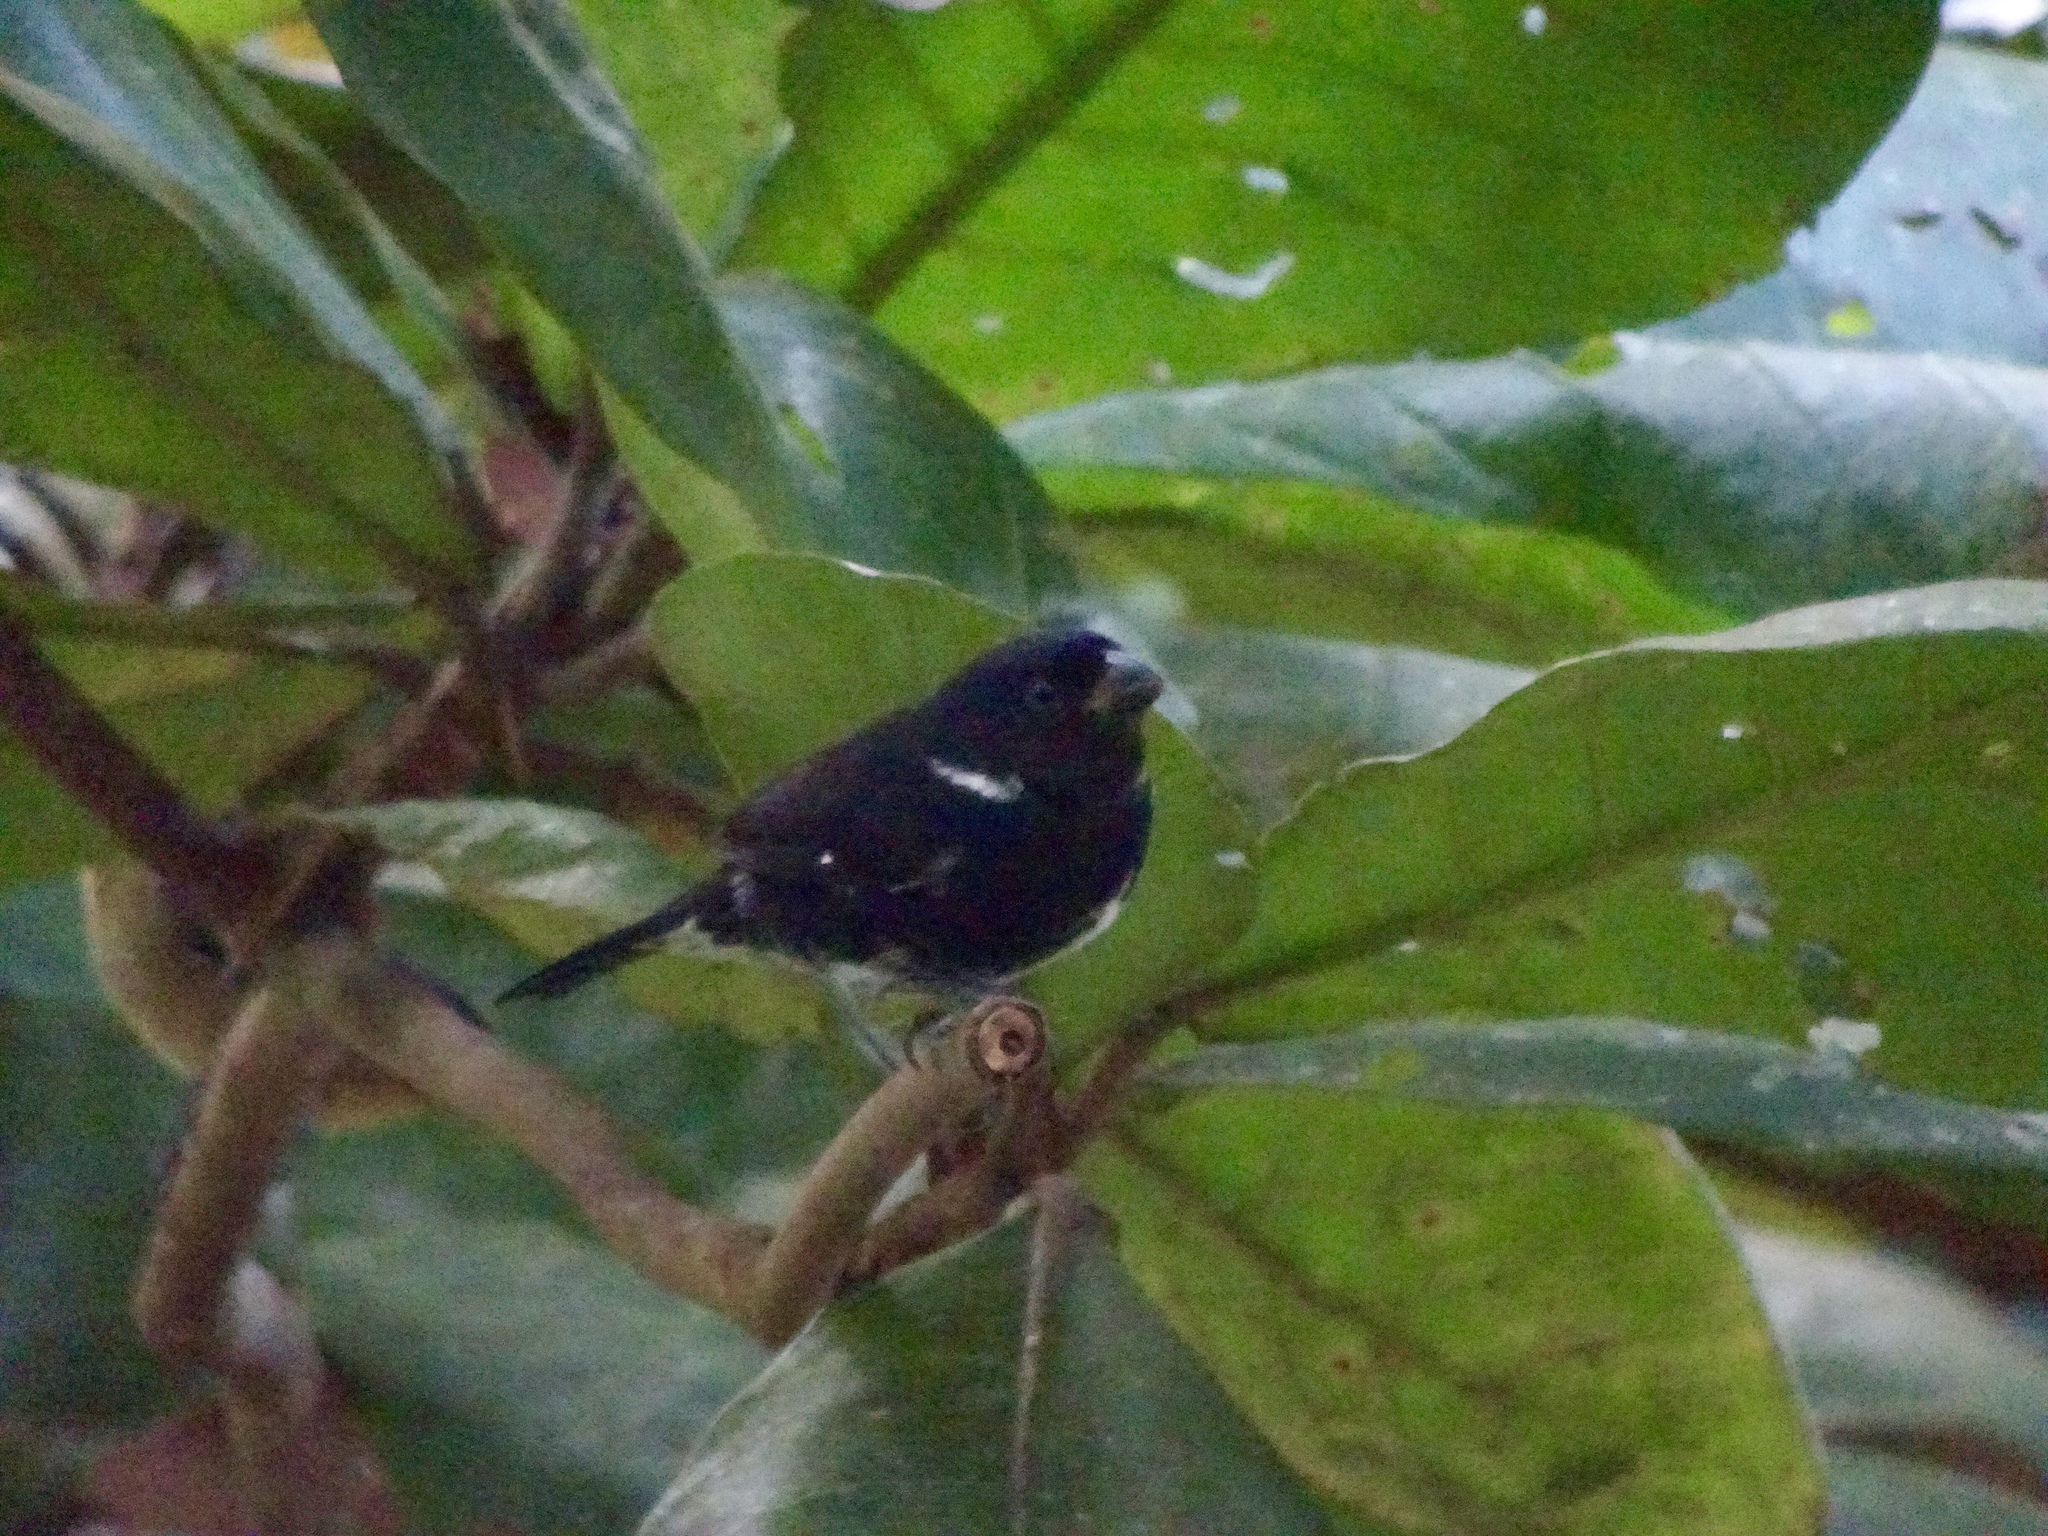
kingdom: Animalia
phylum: Chordata
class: Aves
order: Passeriformes
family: Thraupidae
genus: Sporophila
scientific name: Sporophila corvina
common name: Variable seedeater
